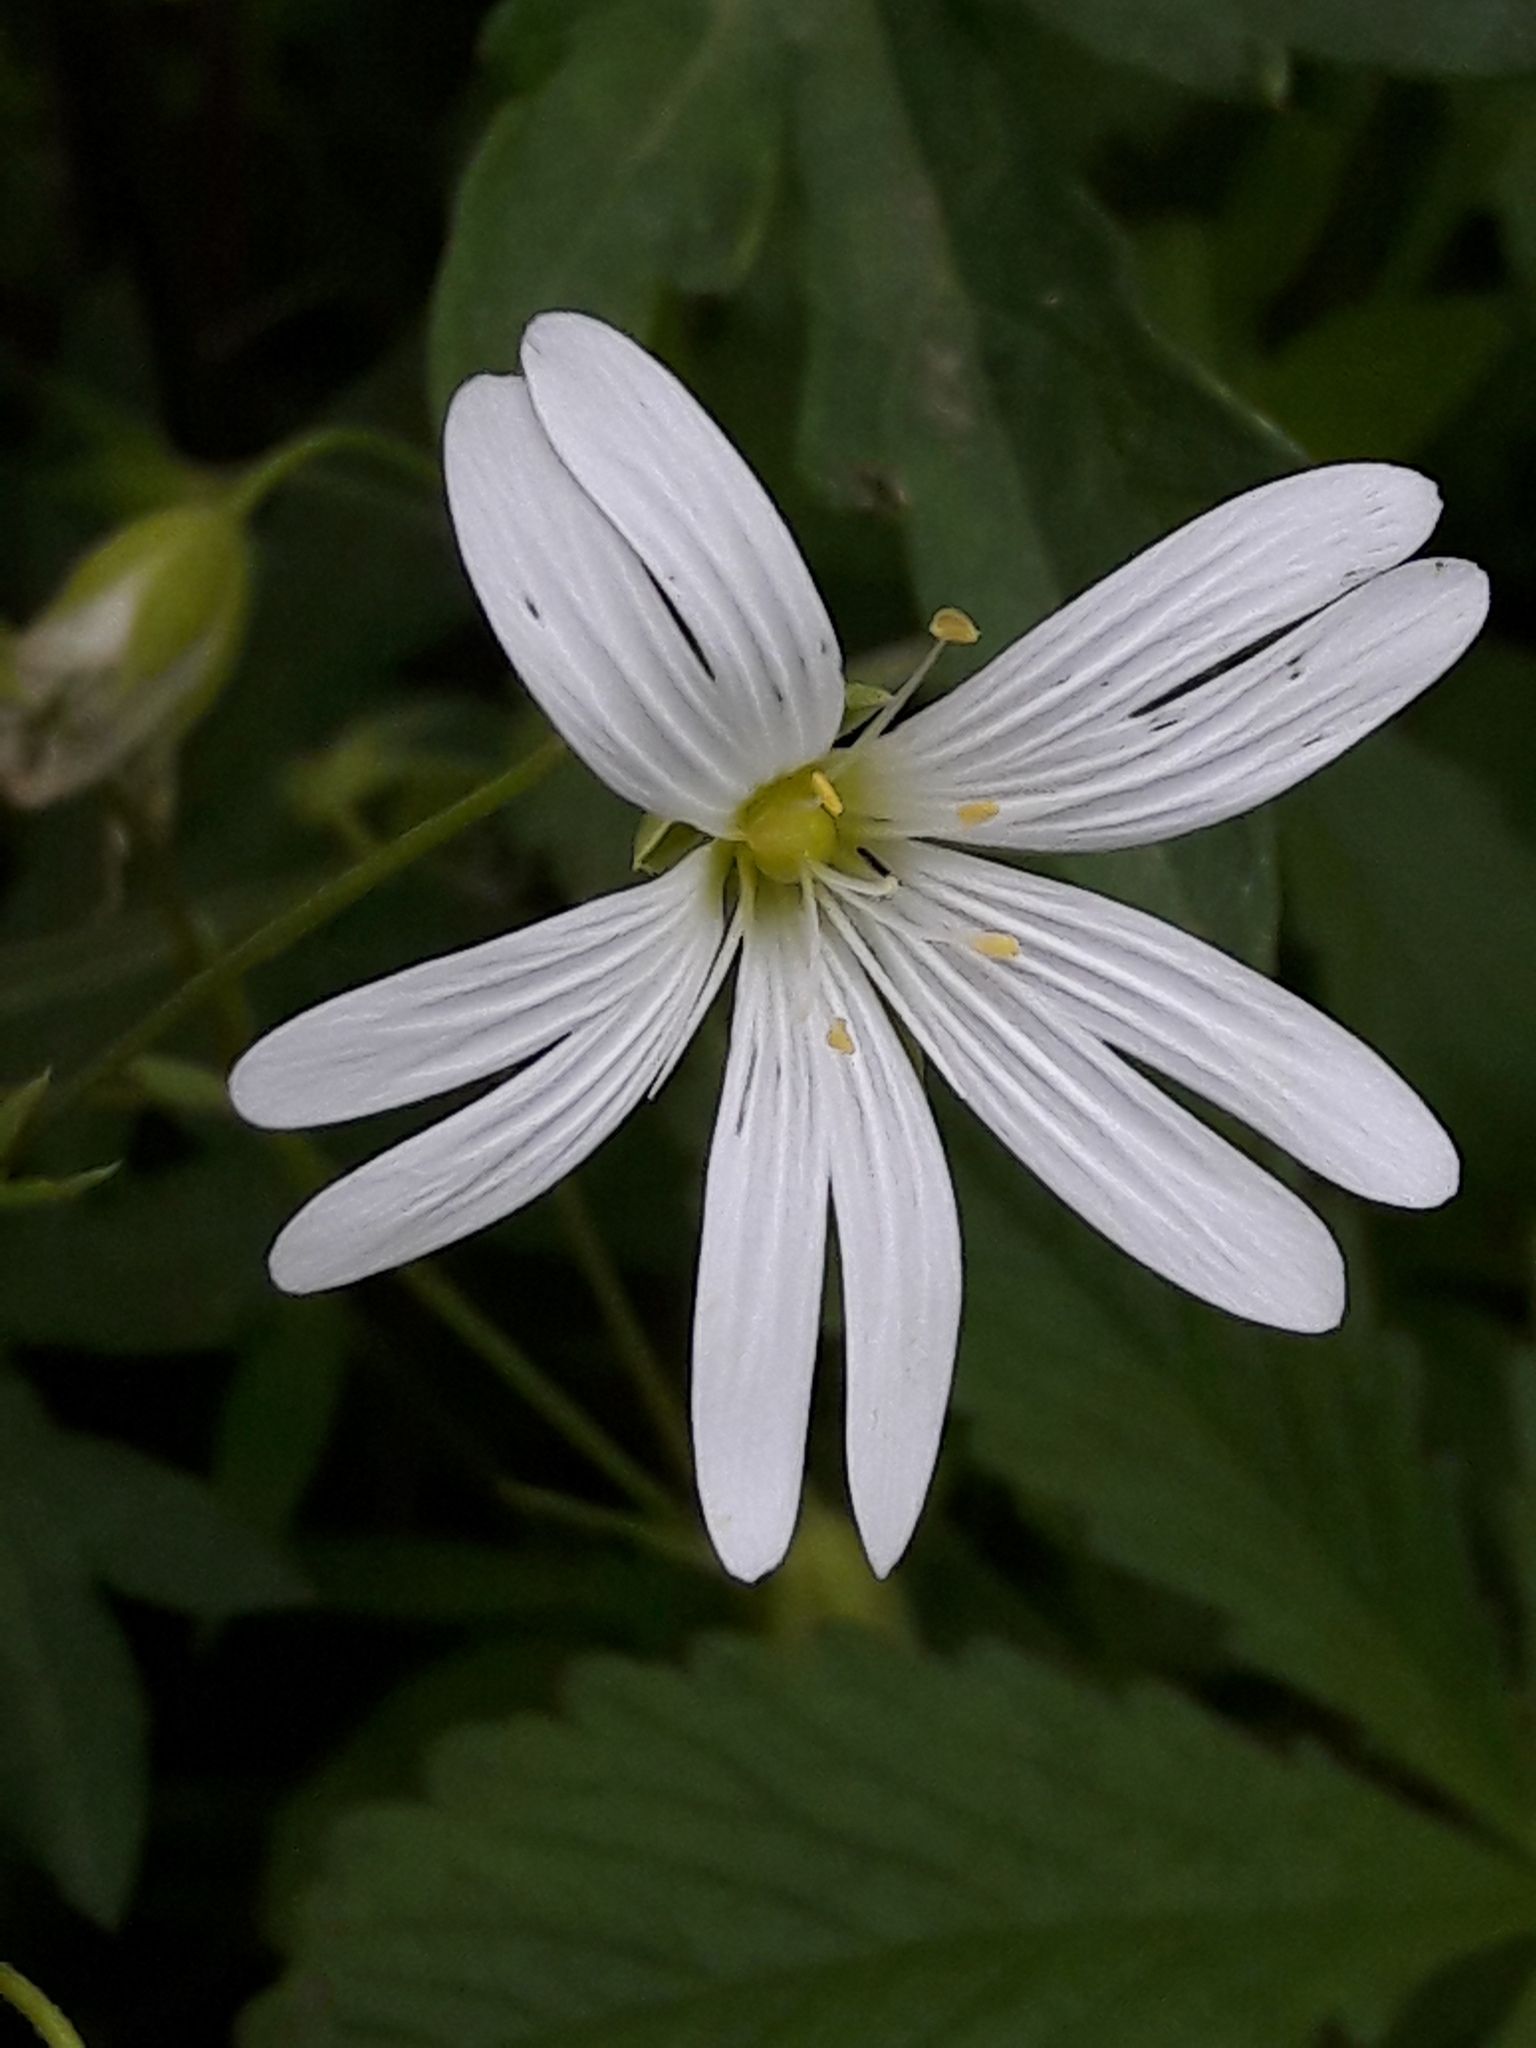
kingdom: Plantae
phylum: Tracheophyta
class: Magnoliopsida
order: Caryophyllales
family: Caryophyllaceae
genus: Rabelera
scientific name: Rabelera holostea
